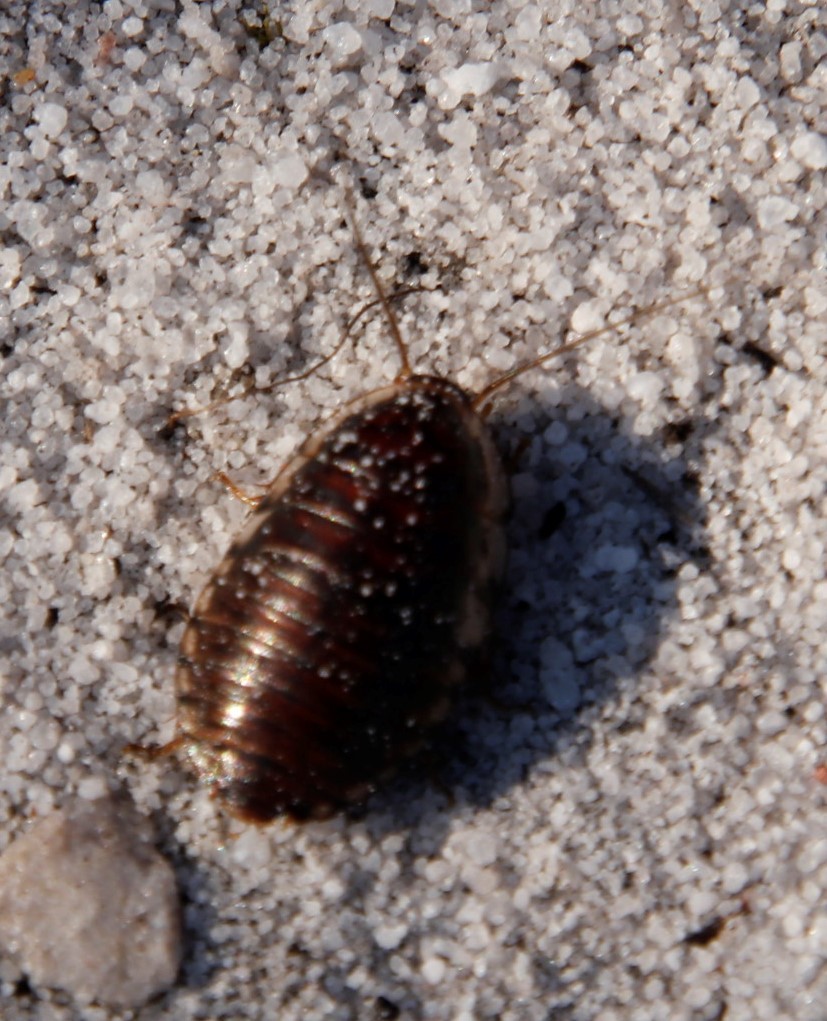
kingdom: Animalia
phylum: Arthropoda
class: Insecta
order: Blattodea
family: Blaberidae
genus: Blepharodera
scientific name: Blepharodera discoidalis
